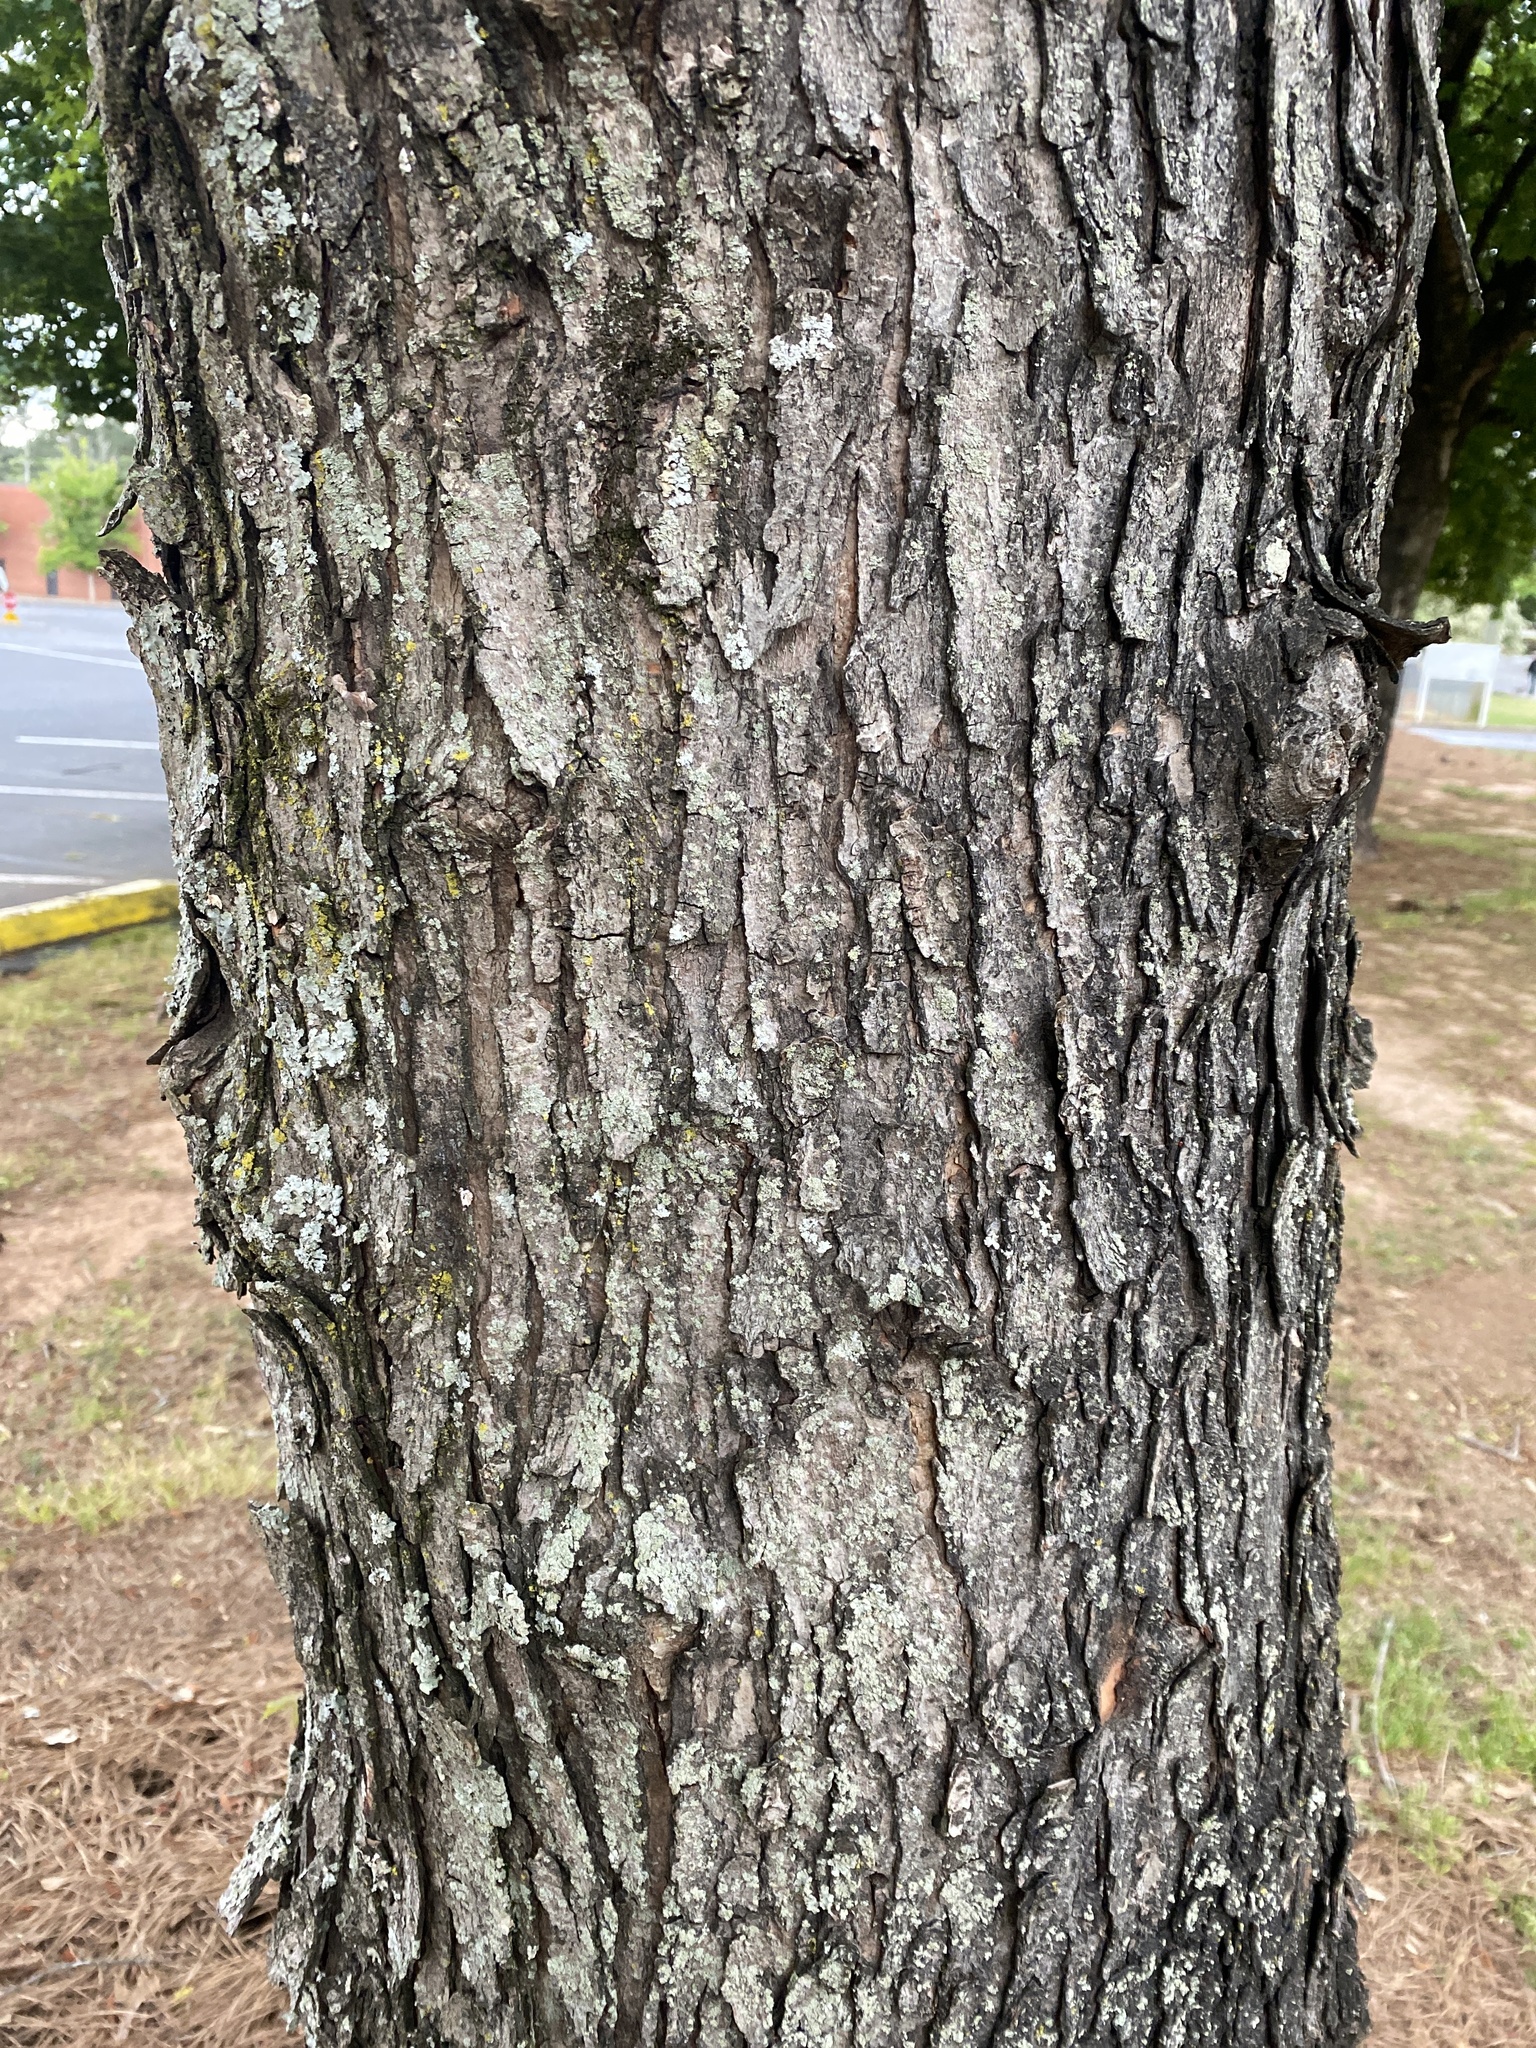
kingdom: Plantae
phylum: Tracheophyta
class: Magnoliopsida
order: Sapindales
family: Sapindaceae
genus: Acer
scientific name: Acer saccharinum
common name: Silver maple
